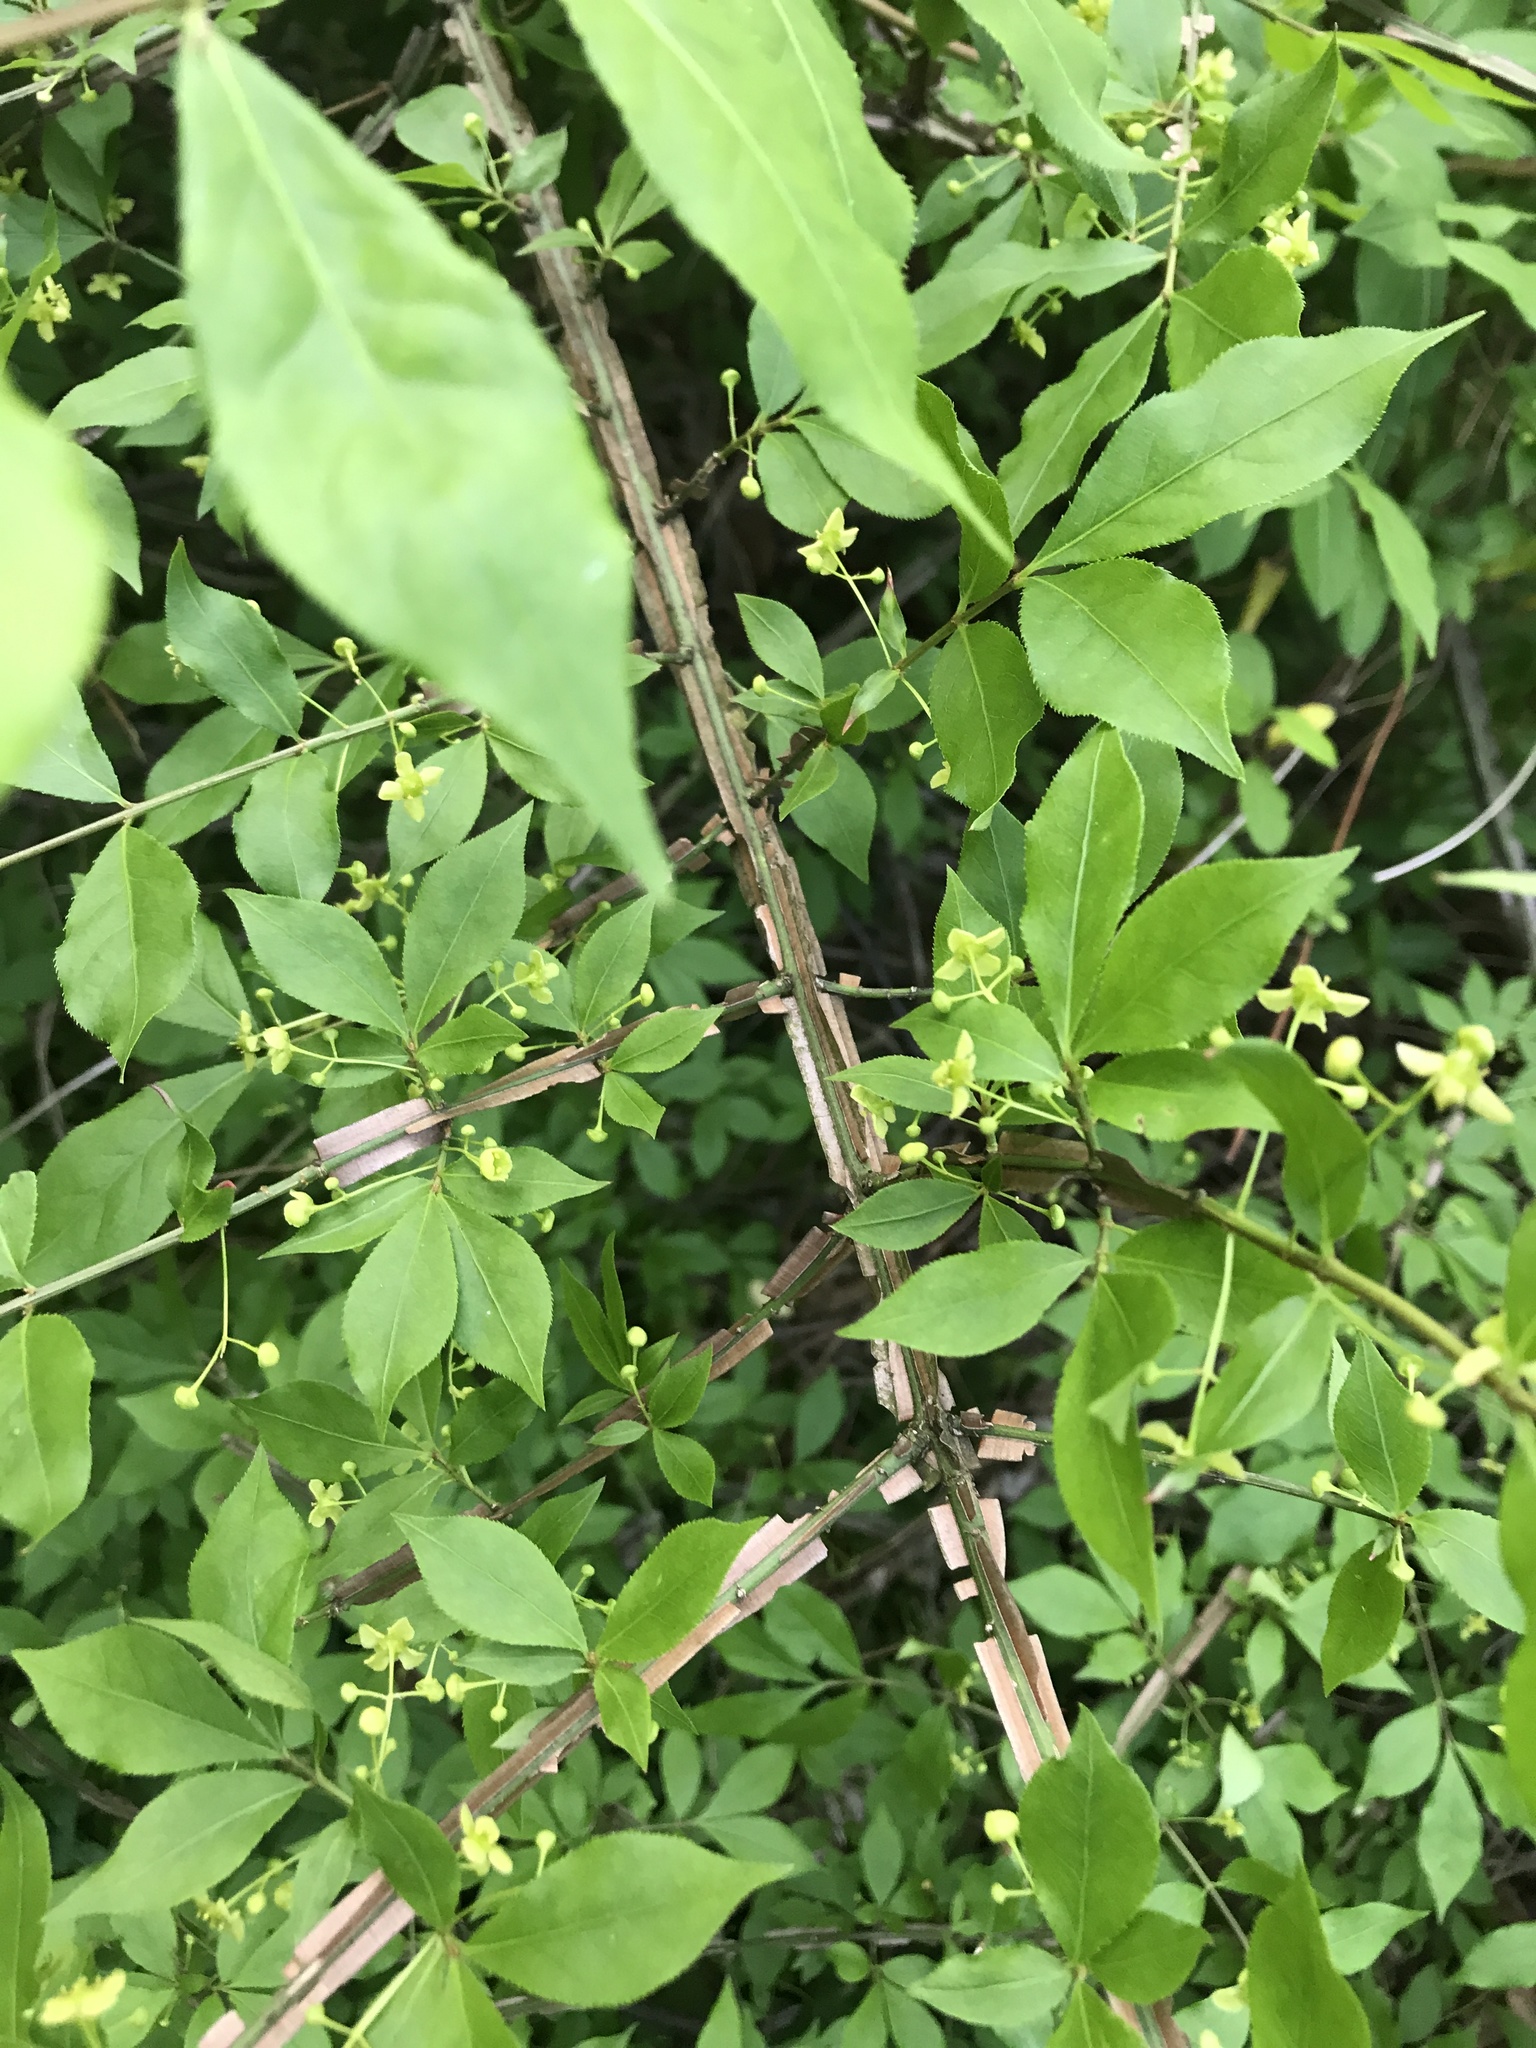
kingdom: Plantae
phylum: Tracheophyta
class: Magnoliopsida
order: Celastrales
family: Celastraceae
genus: Euonymus
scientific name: Euonymus alatus
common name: Winged euonymus
